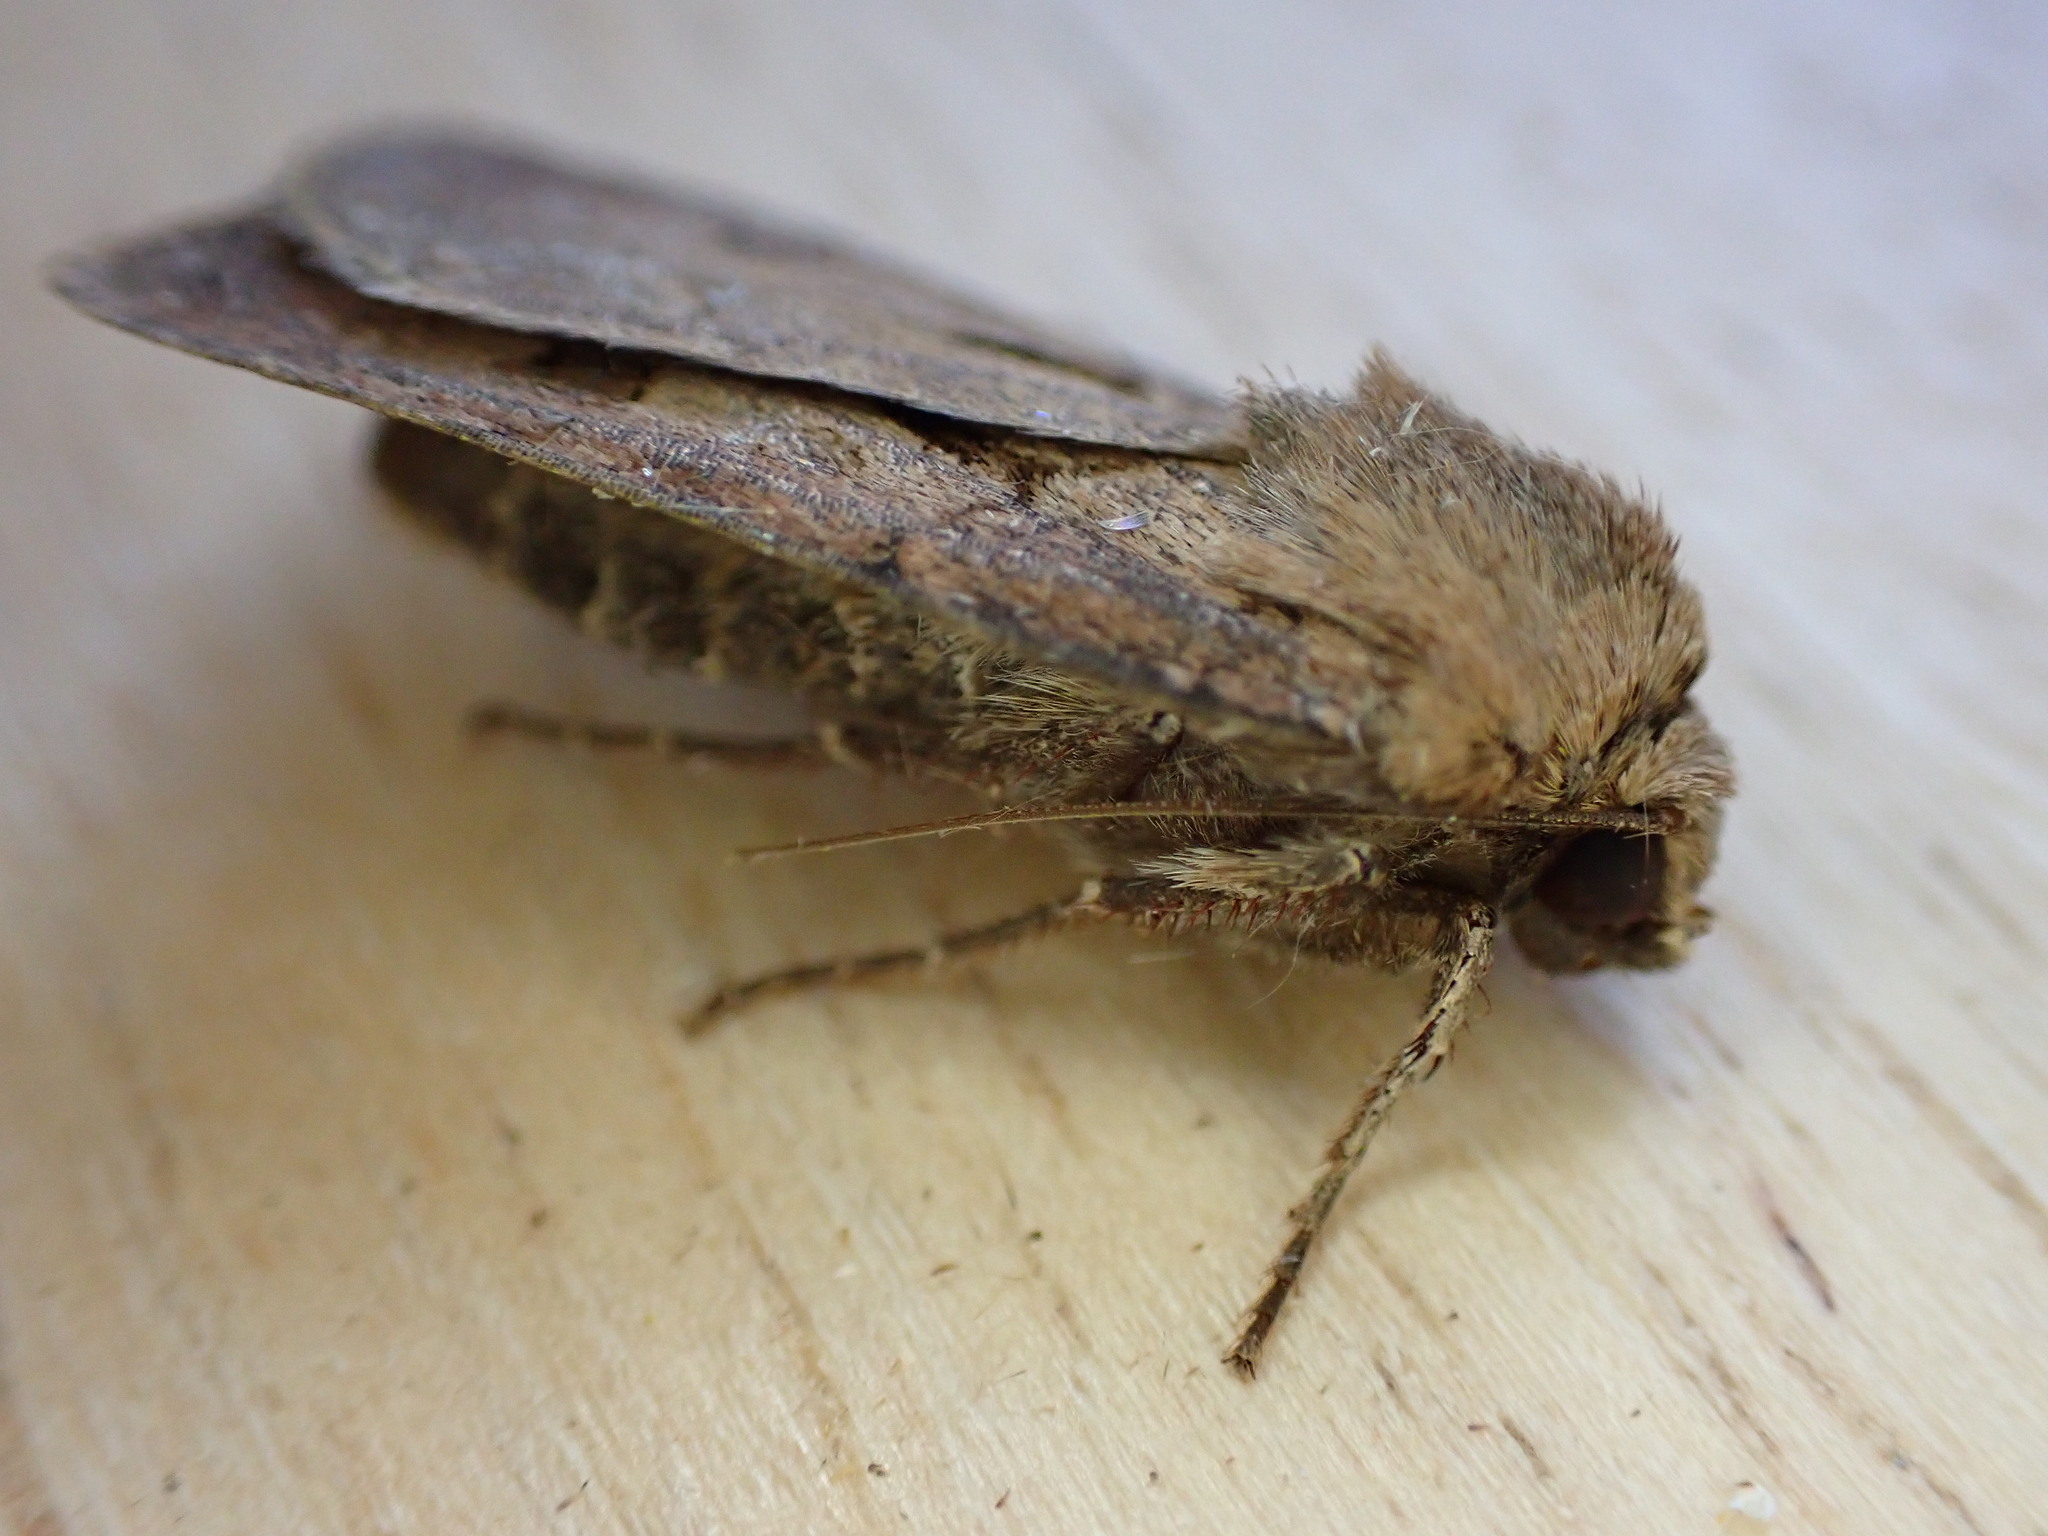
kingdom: Animalia
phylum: Arthropoda
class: Insecta
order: Lepidoptera
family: Noctuidae
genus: Agrotis
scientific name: Agrotis exclamationis
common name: Heart and dart
